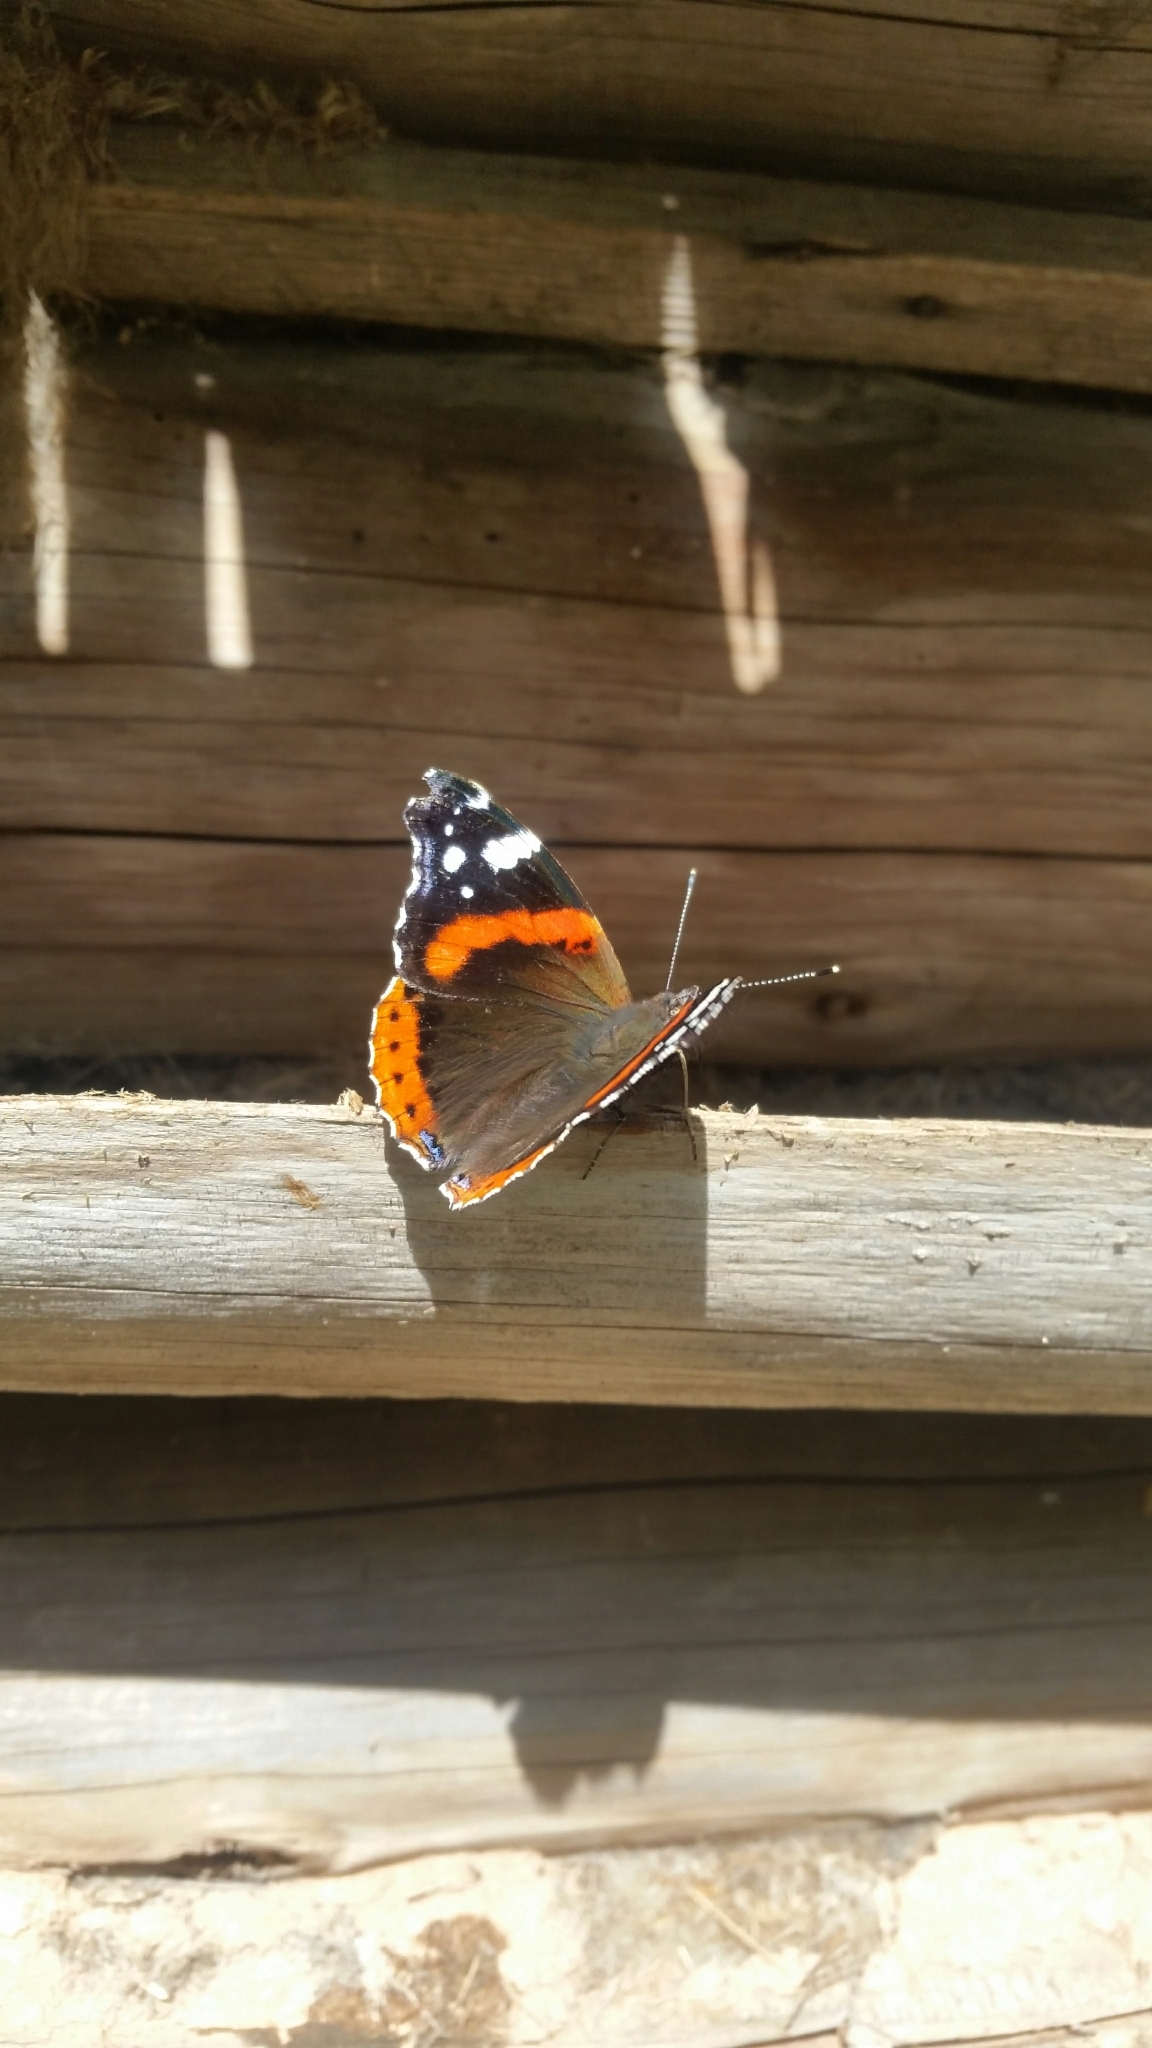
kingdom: Animalia
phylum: Arthropoda
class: Insecta
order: Lepidoptera
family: Nymphalidae
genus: Vanessa
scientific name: Vanessa atalanta
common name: Red admiral
